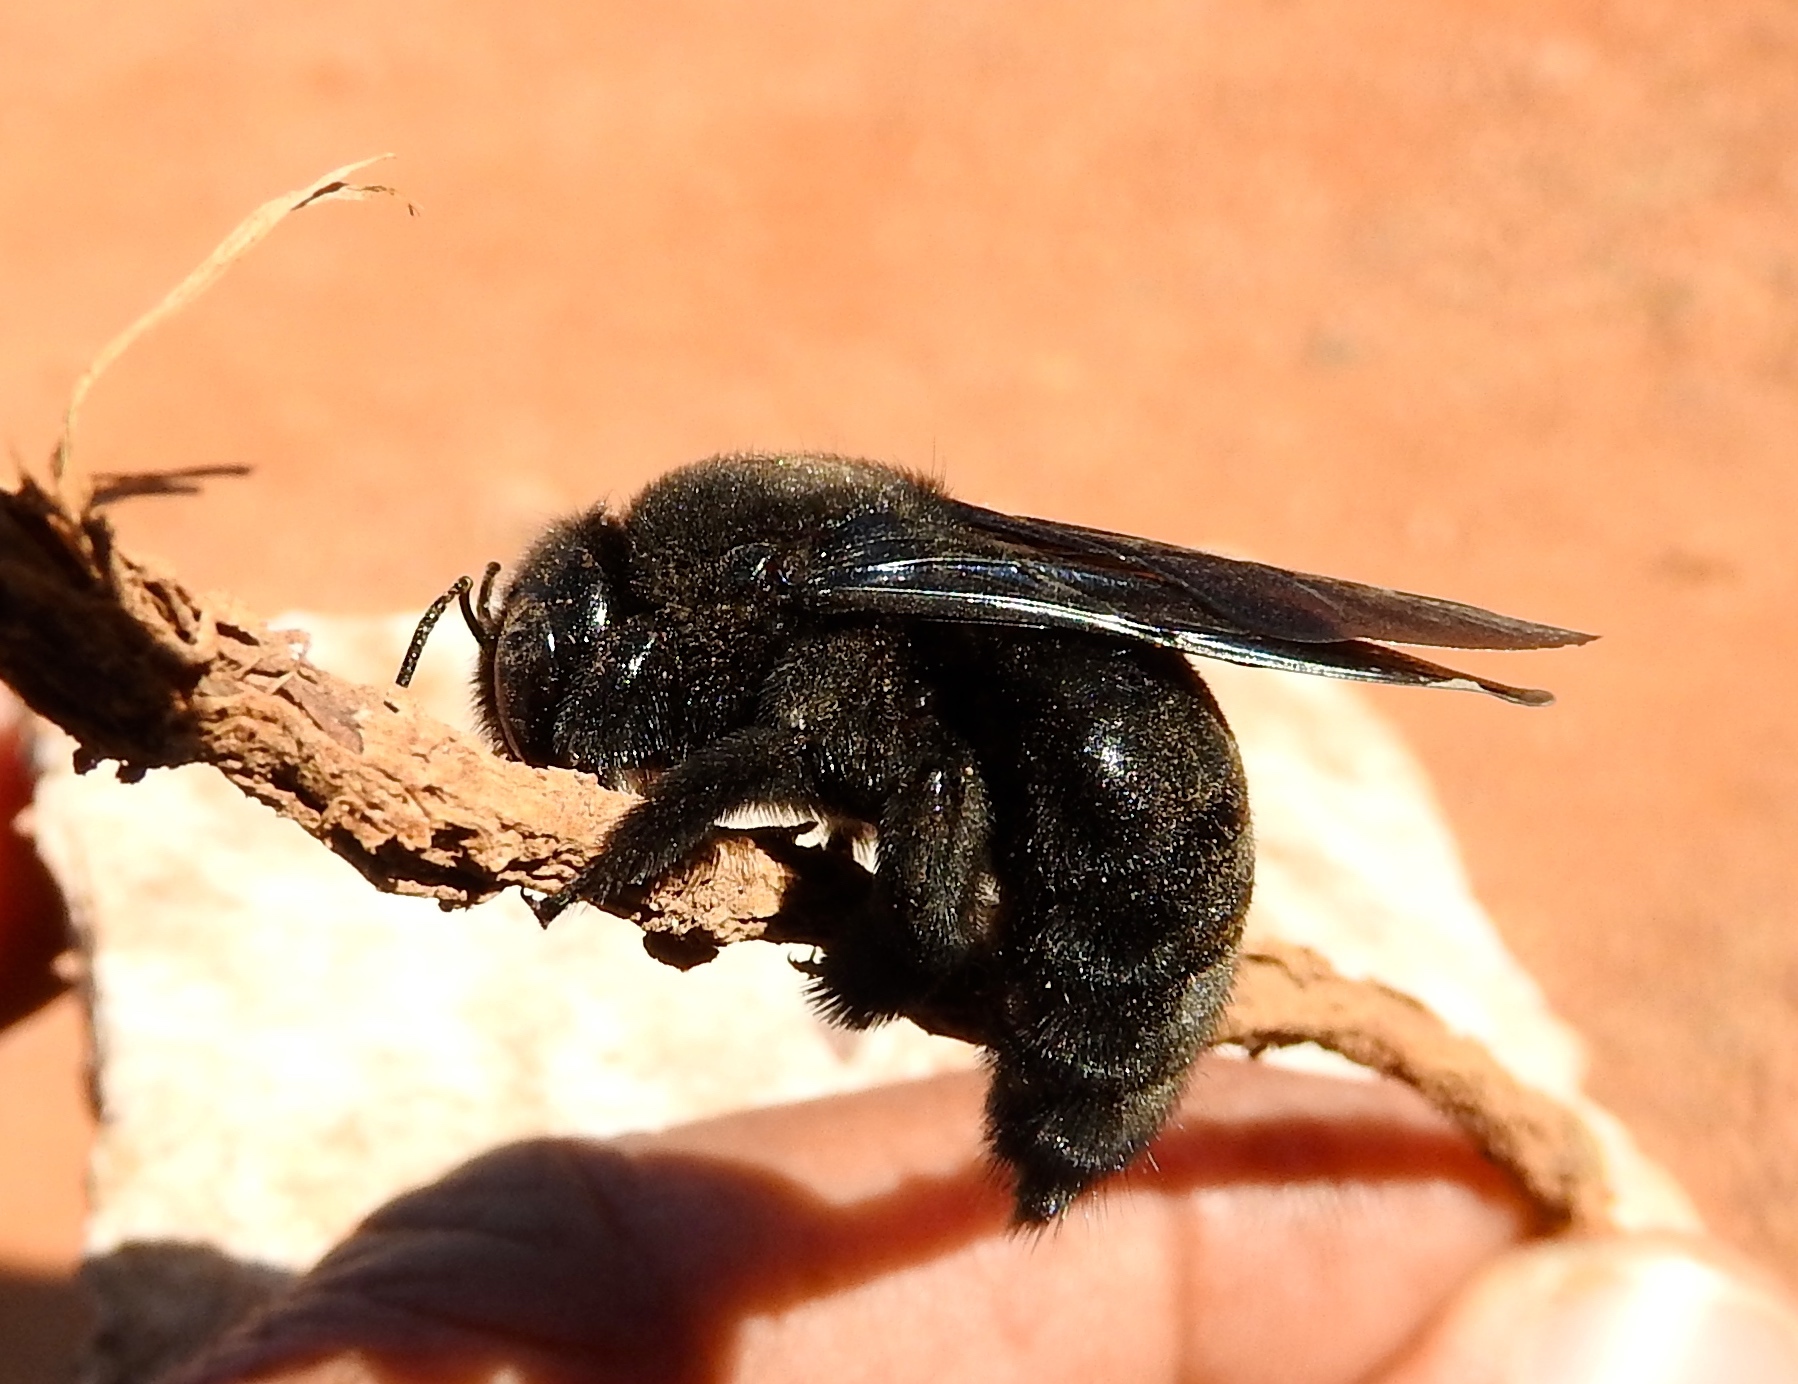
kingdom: Animalia
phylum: Arthropoda
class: Insecta
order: Hymenoptera
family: Apidae
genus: Xylocopa
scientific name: Xylocopa
